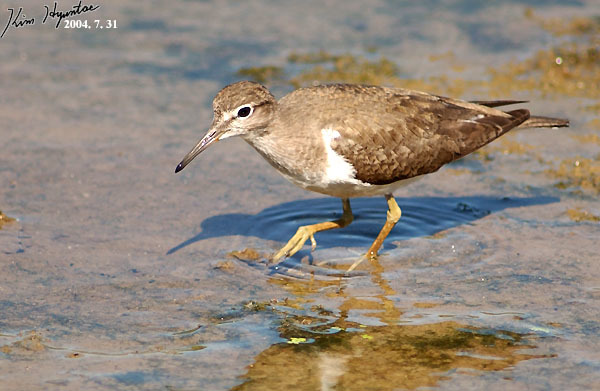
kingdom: Animalia
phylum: Chordata
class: Aves
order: Charadriiformes
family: Scolopacidae
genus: Actitis
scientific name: Actitis hypoleucos
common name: Common sandpiper
